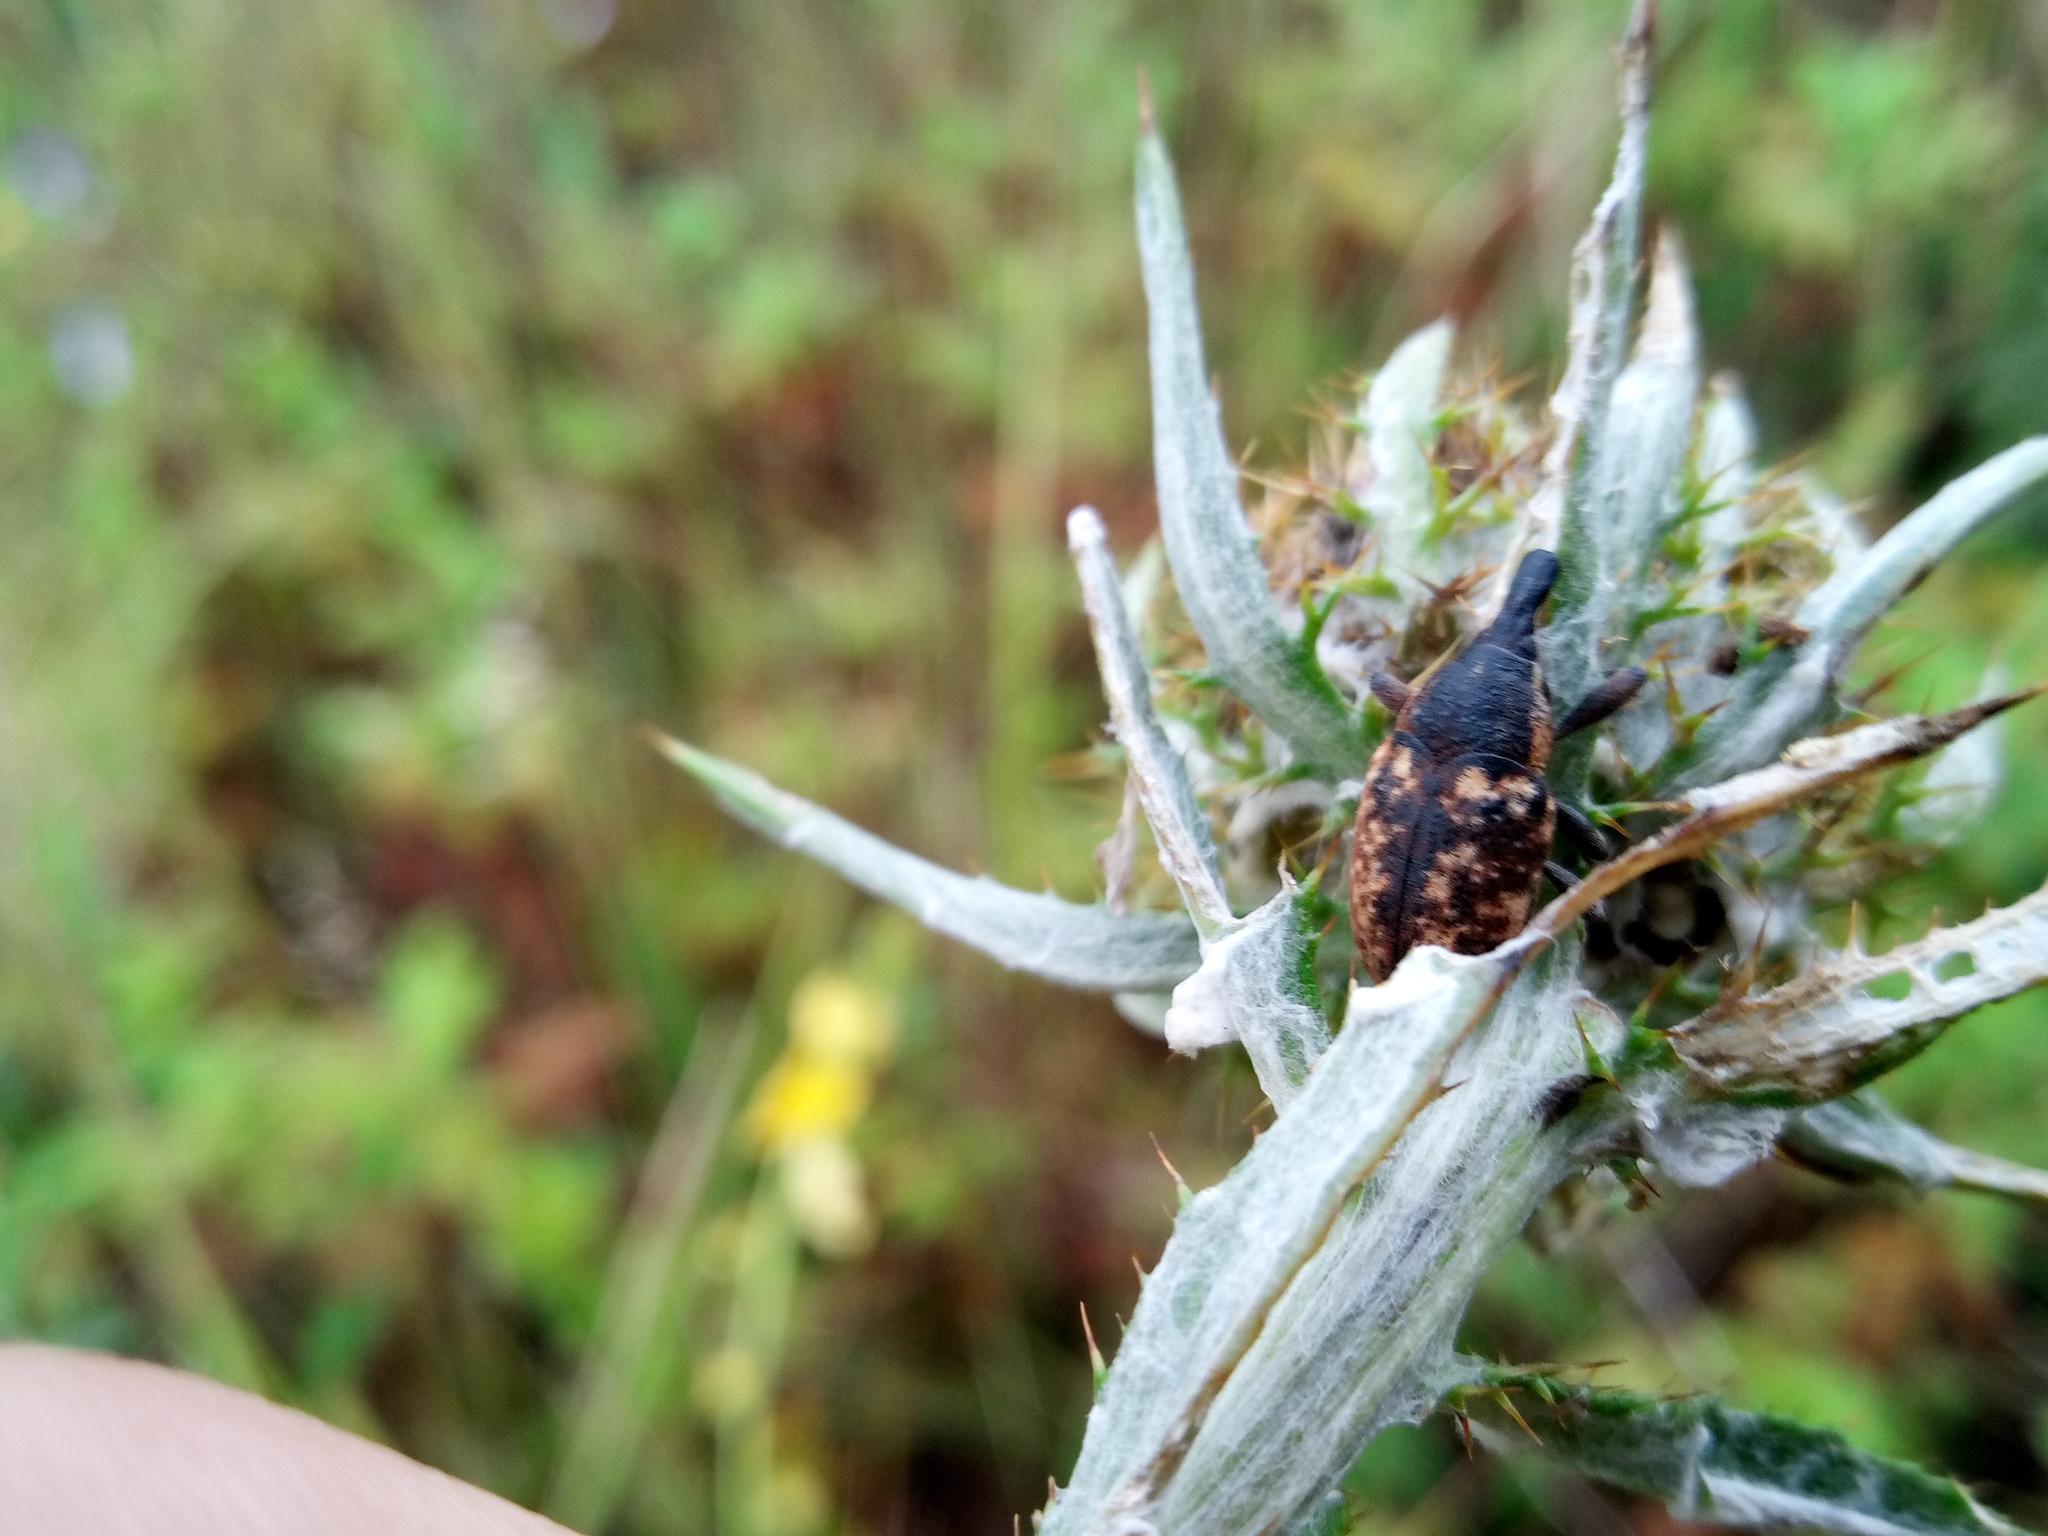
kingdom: Animalia
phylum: Arthropoda
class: Insecta
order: Coleoptera
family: Curculionidae
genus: Larinus
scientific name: Larinus pollinis
